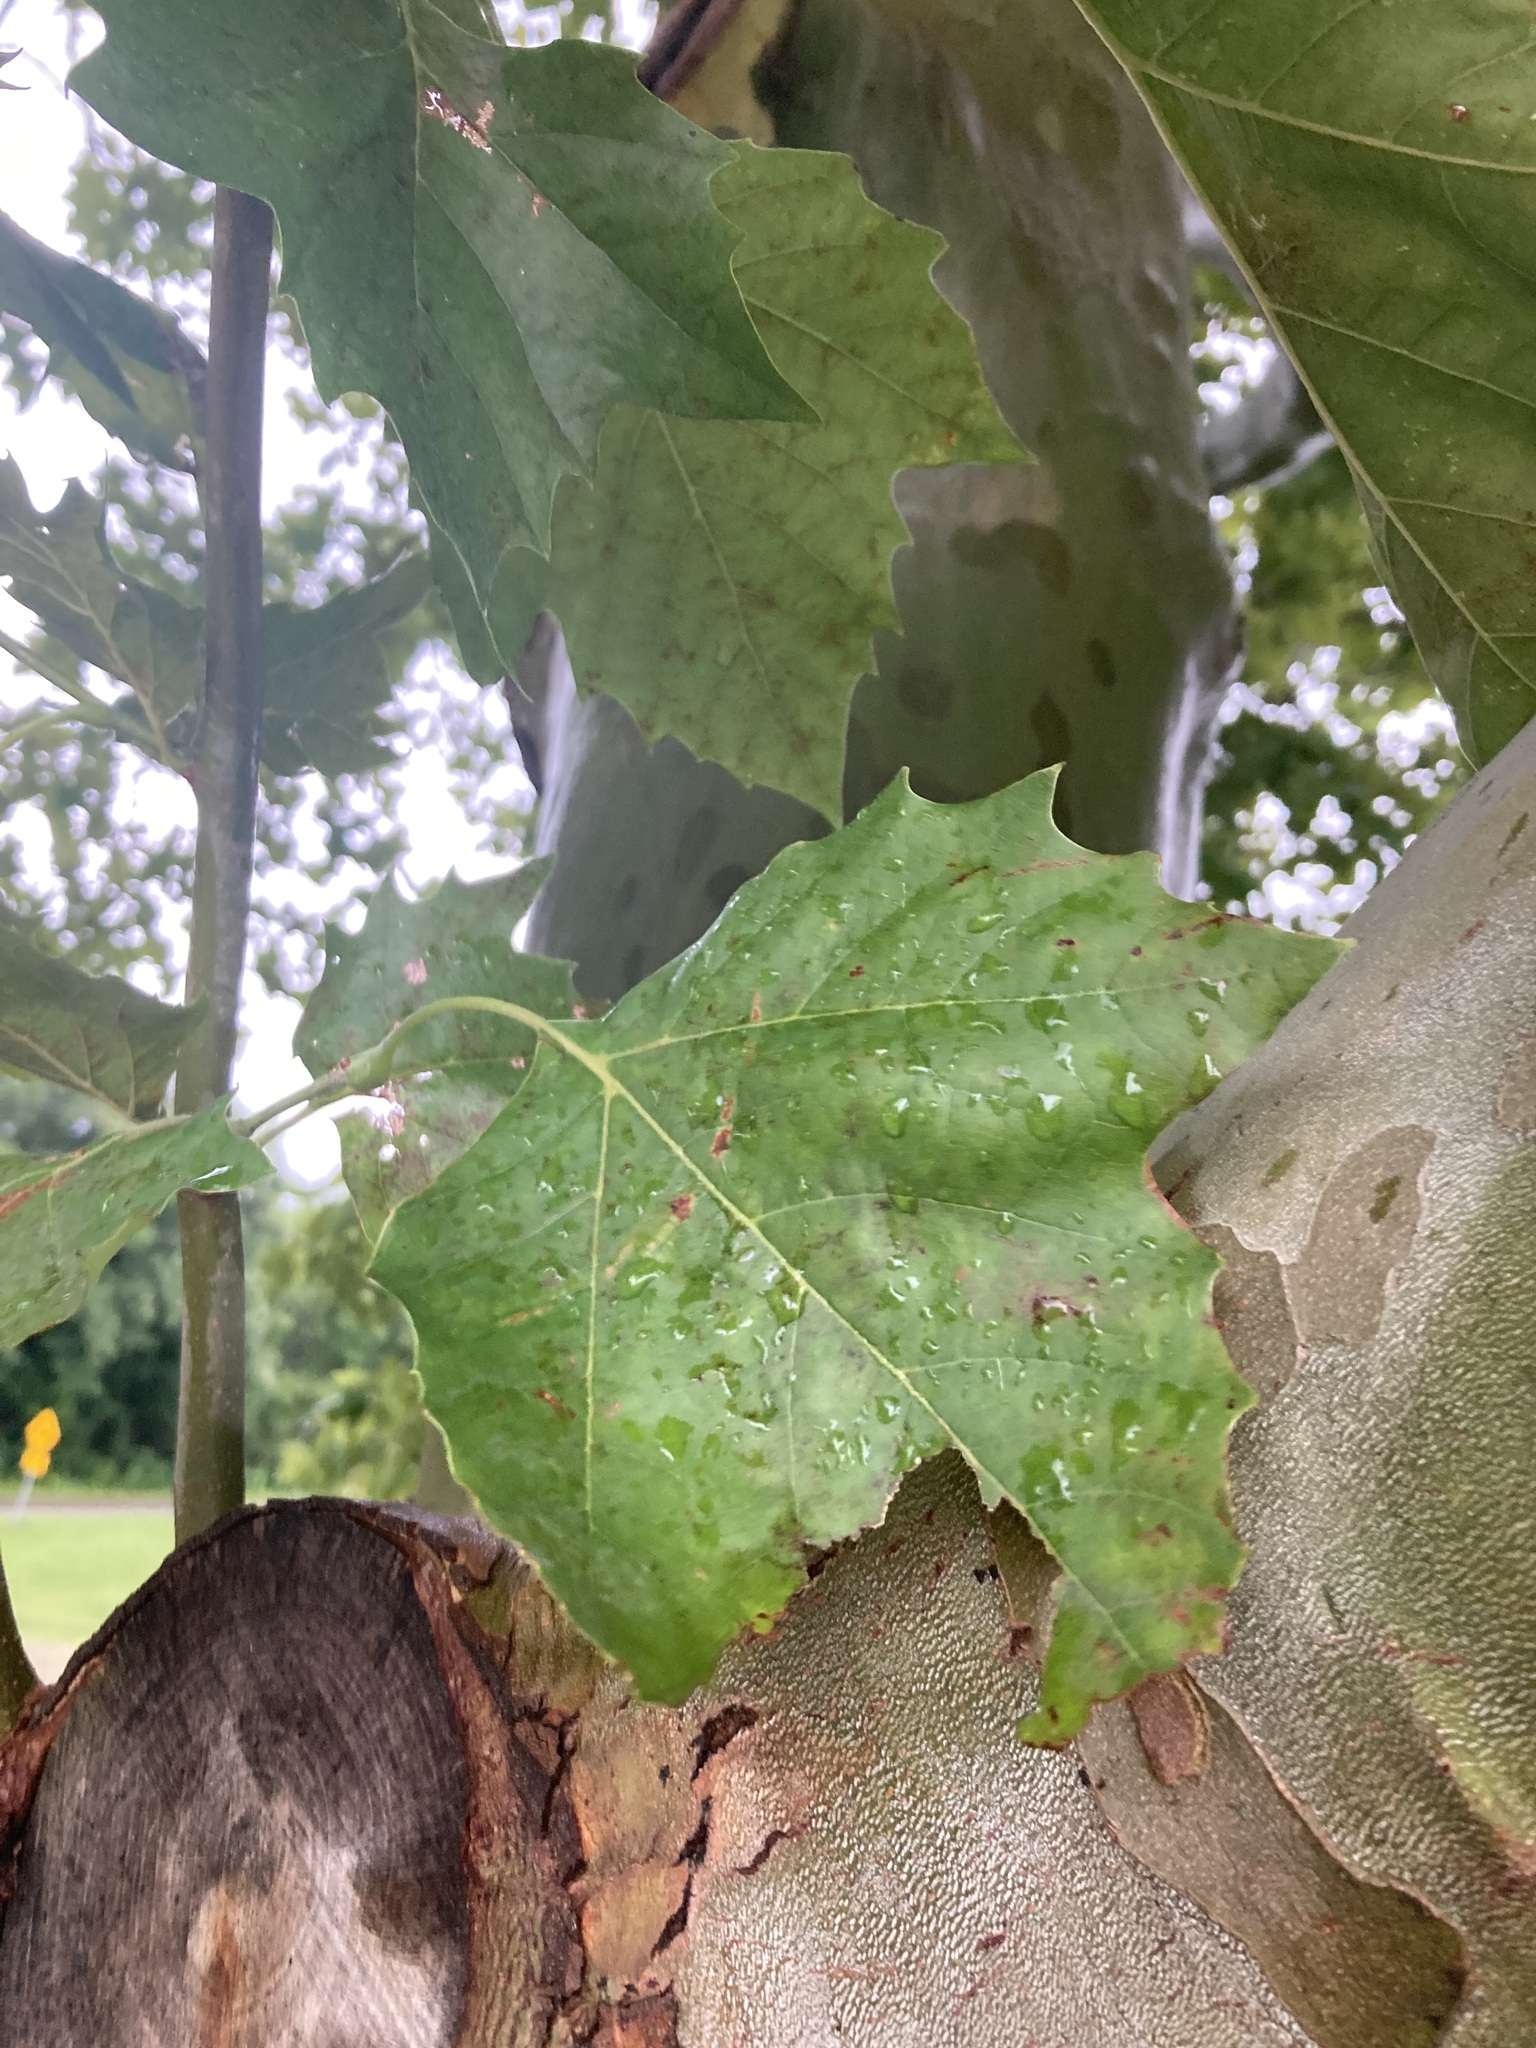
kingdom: Plantae
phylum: Tracheophyta
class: Magnoliopsida
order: Proteales
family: Platanaceae
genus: Platanus
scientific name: Platanus occidentalis
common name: American sycamore
